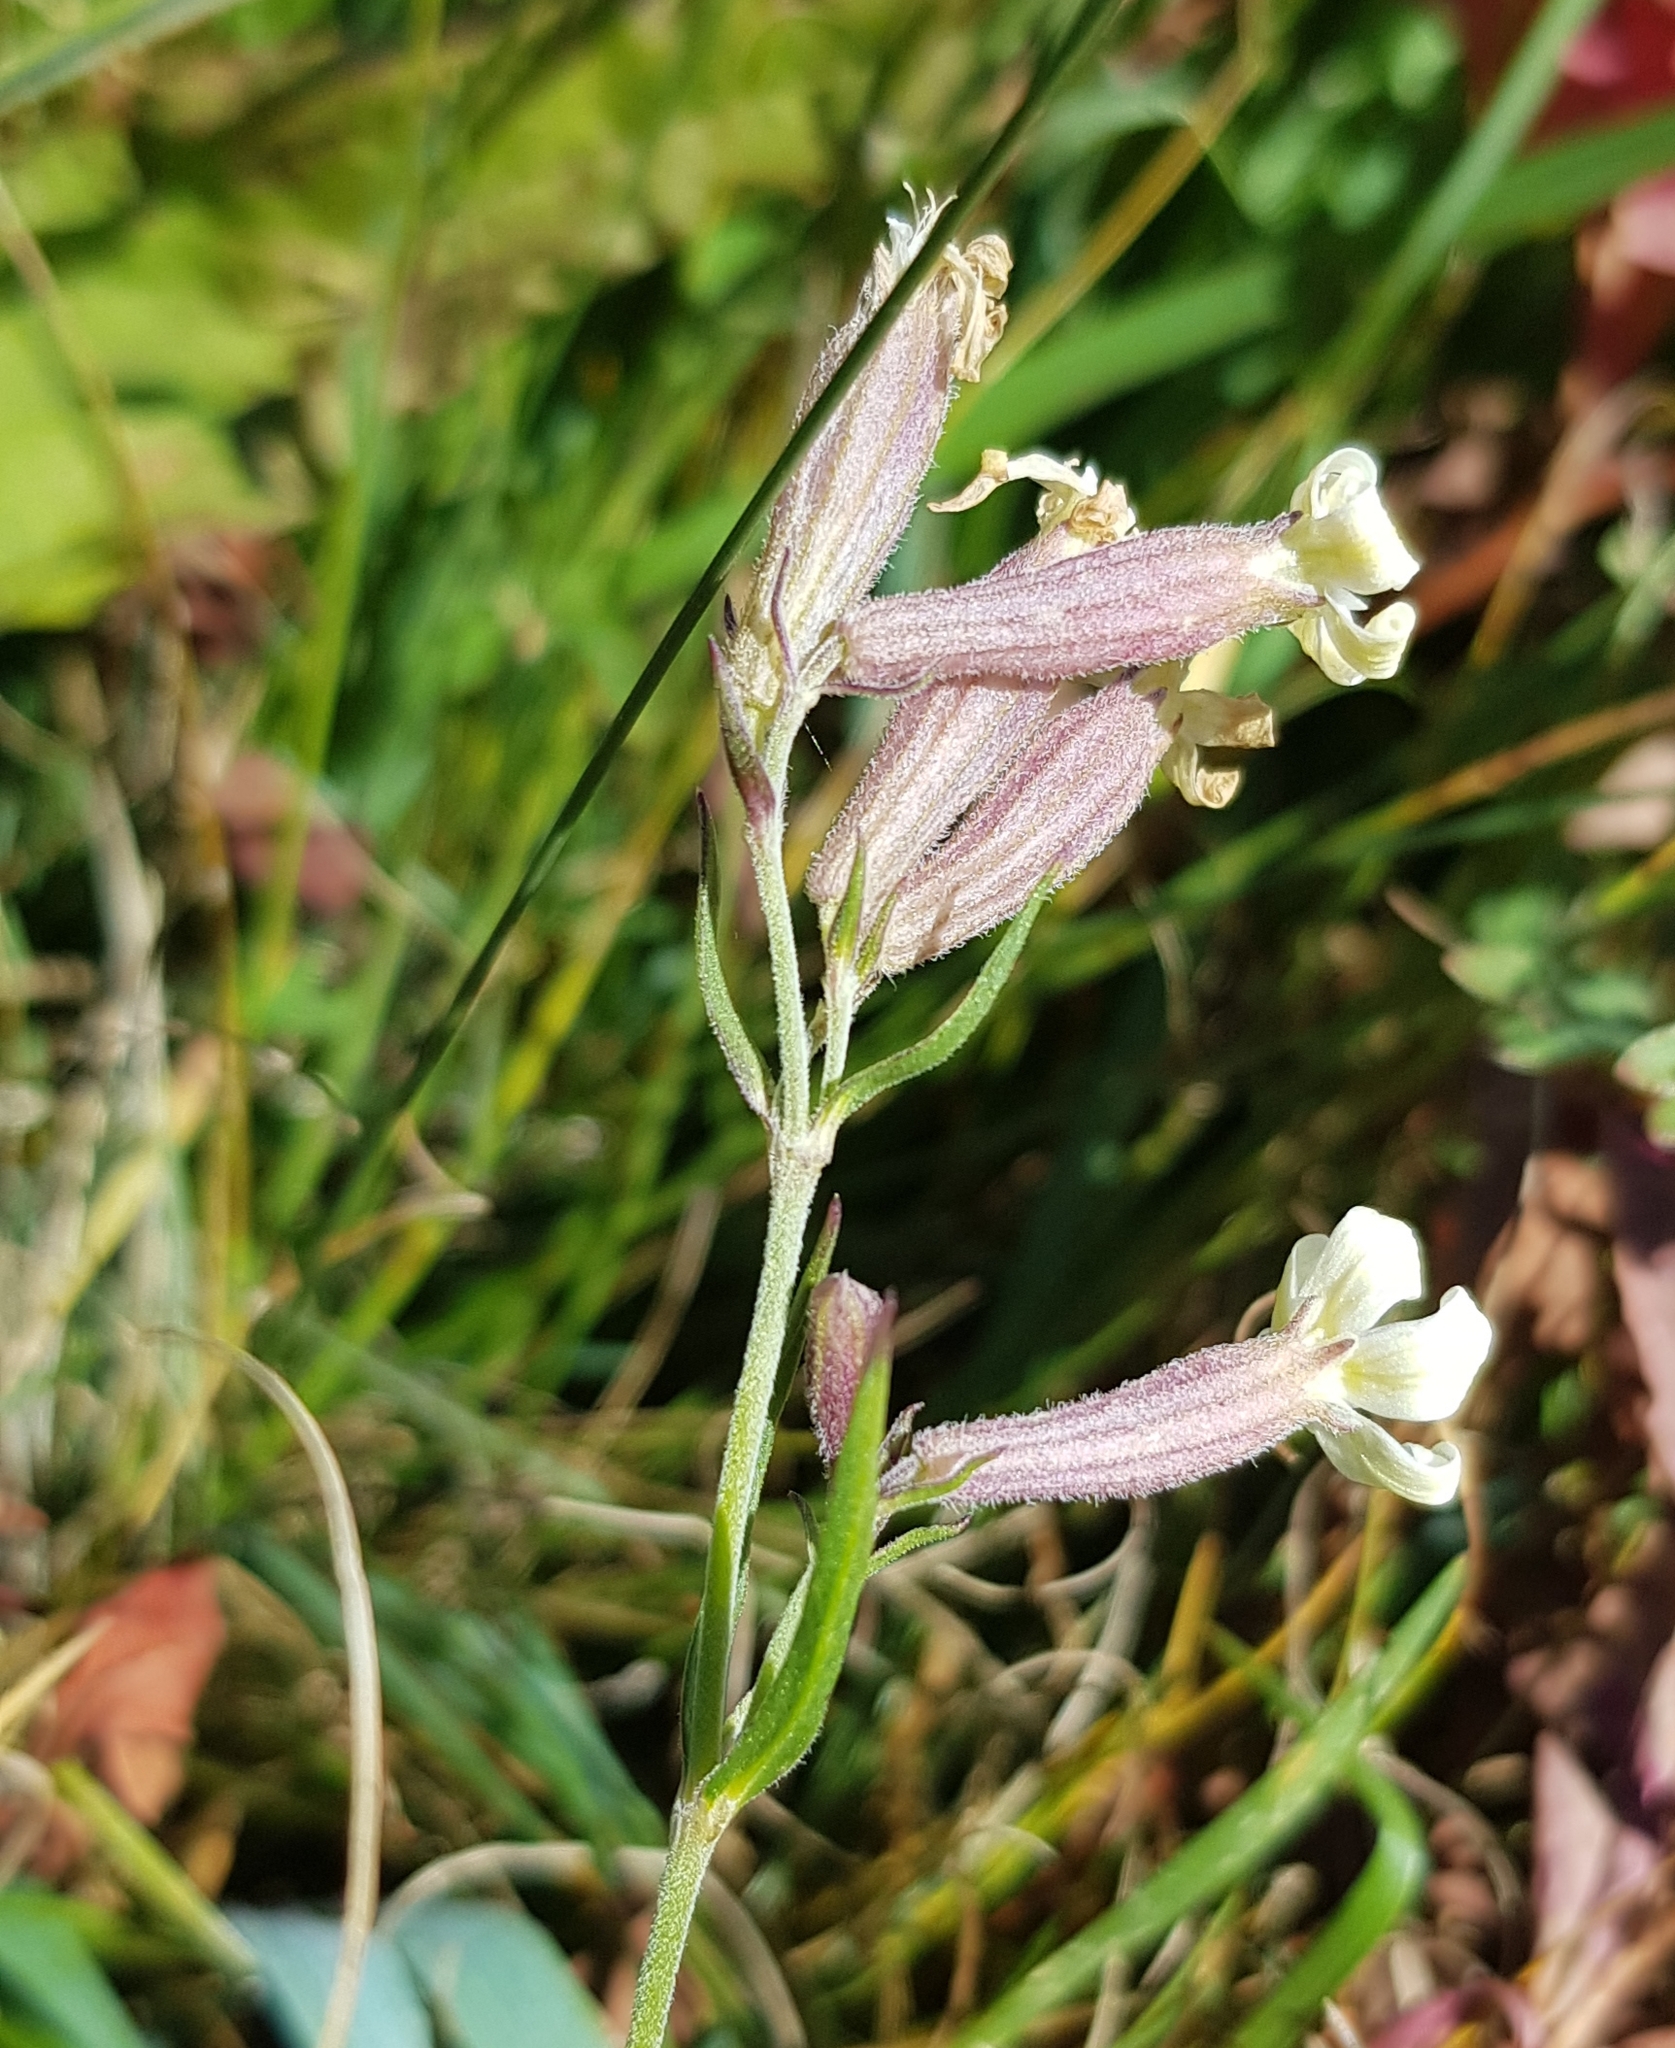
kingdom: Plantae
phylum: Tracheophyta
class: Magnoliopsida
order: Caryophyllales
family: Caryophyllaceae
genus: Silene
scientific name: Silene amoena
